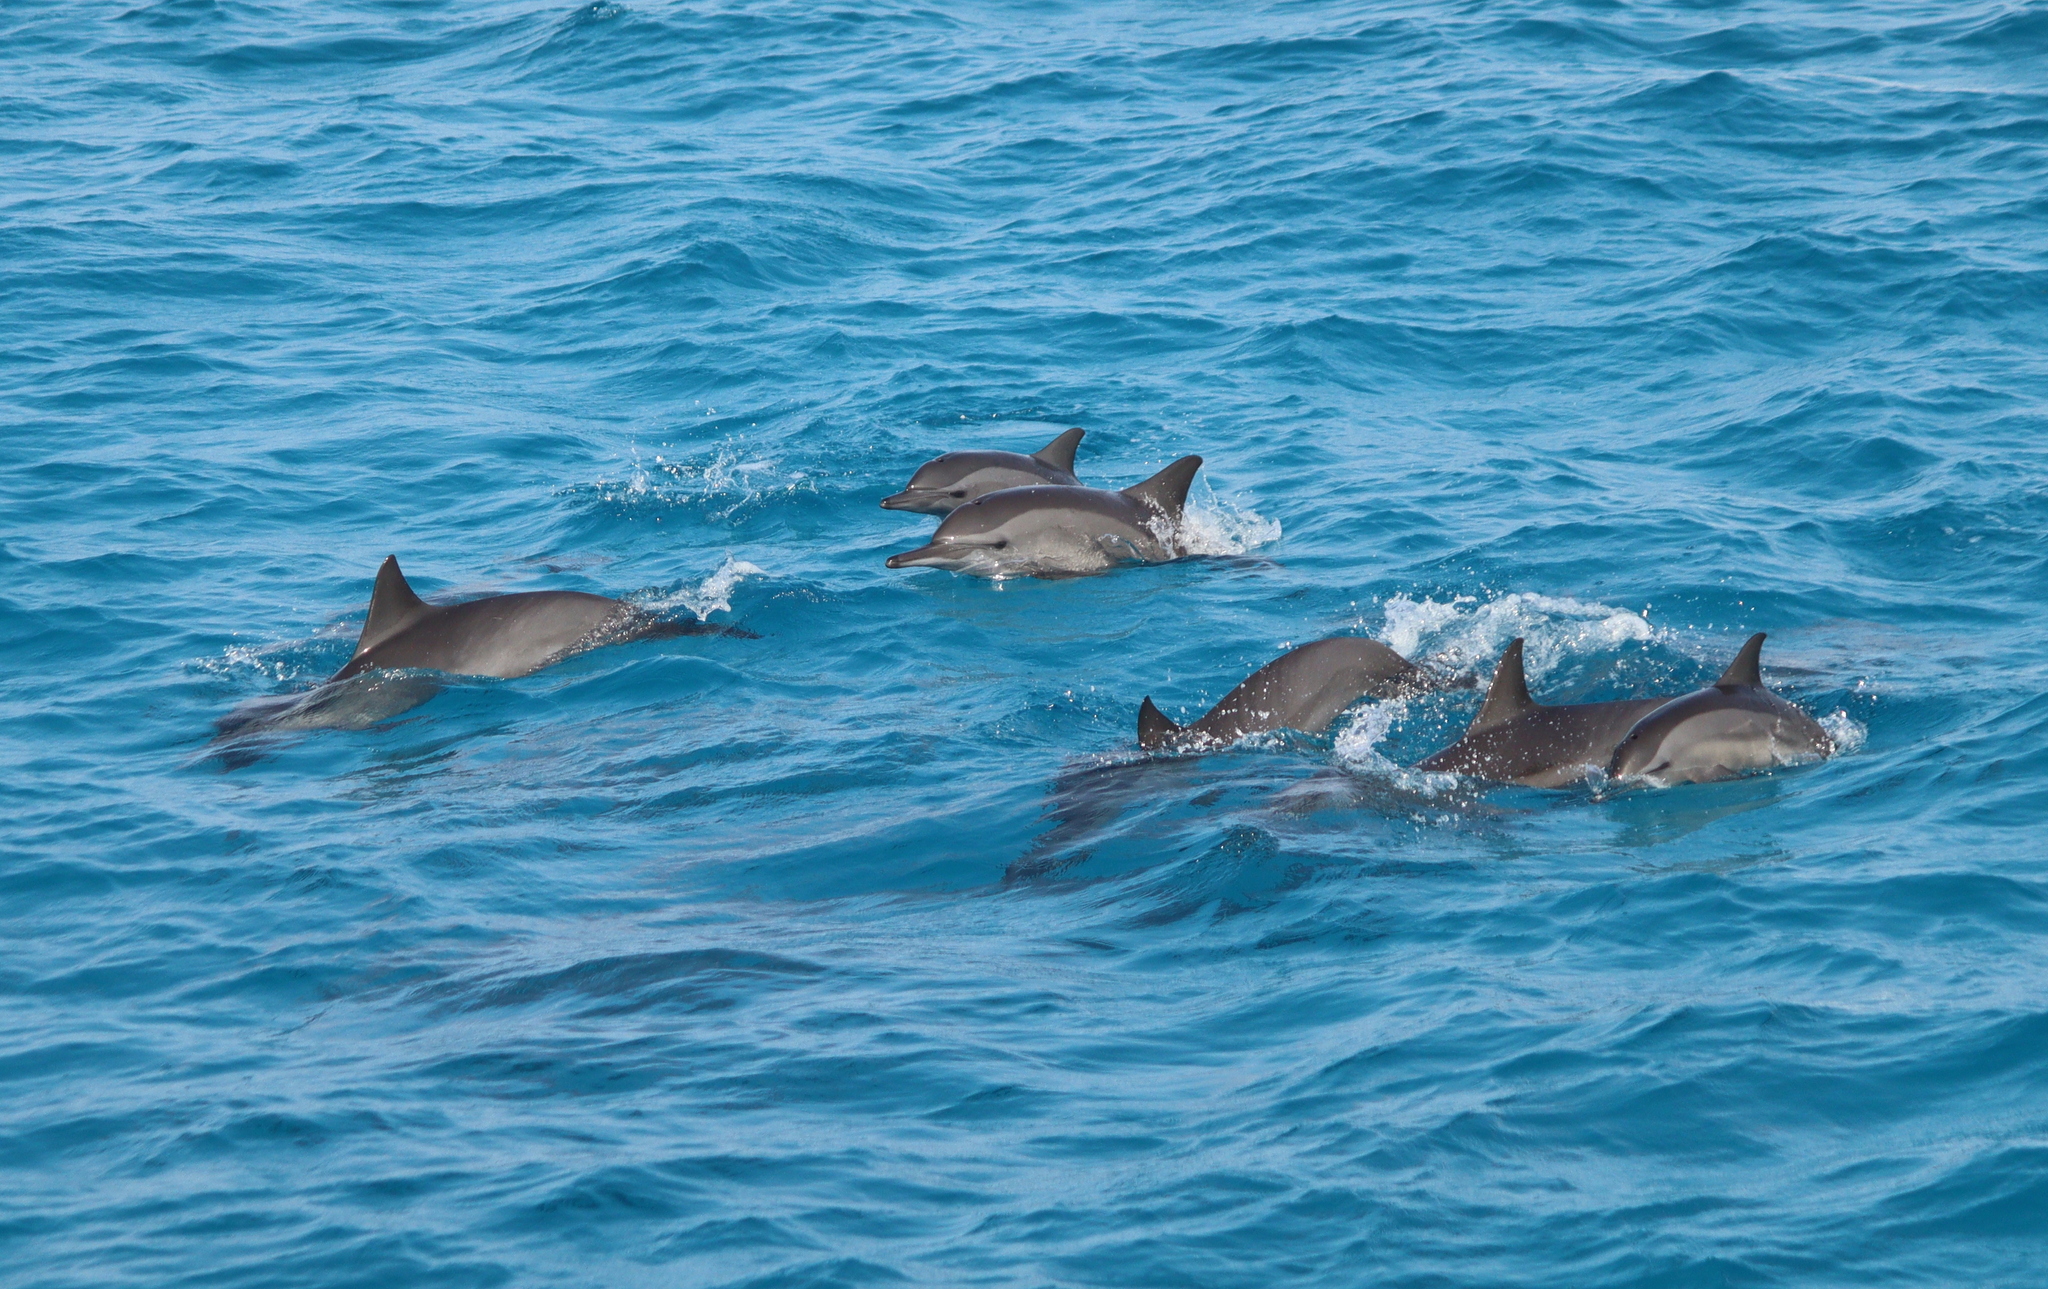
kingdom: Animalia
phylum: Chordata
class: Mammalia
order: Cetacea
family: Delphinidae
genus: Stenella
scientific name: Stenella longirostris
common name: Spinner dolphin
